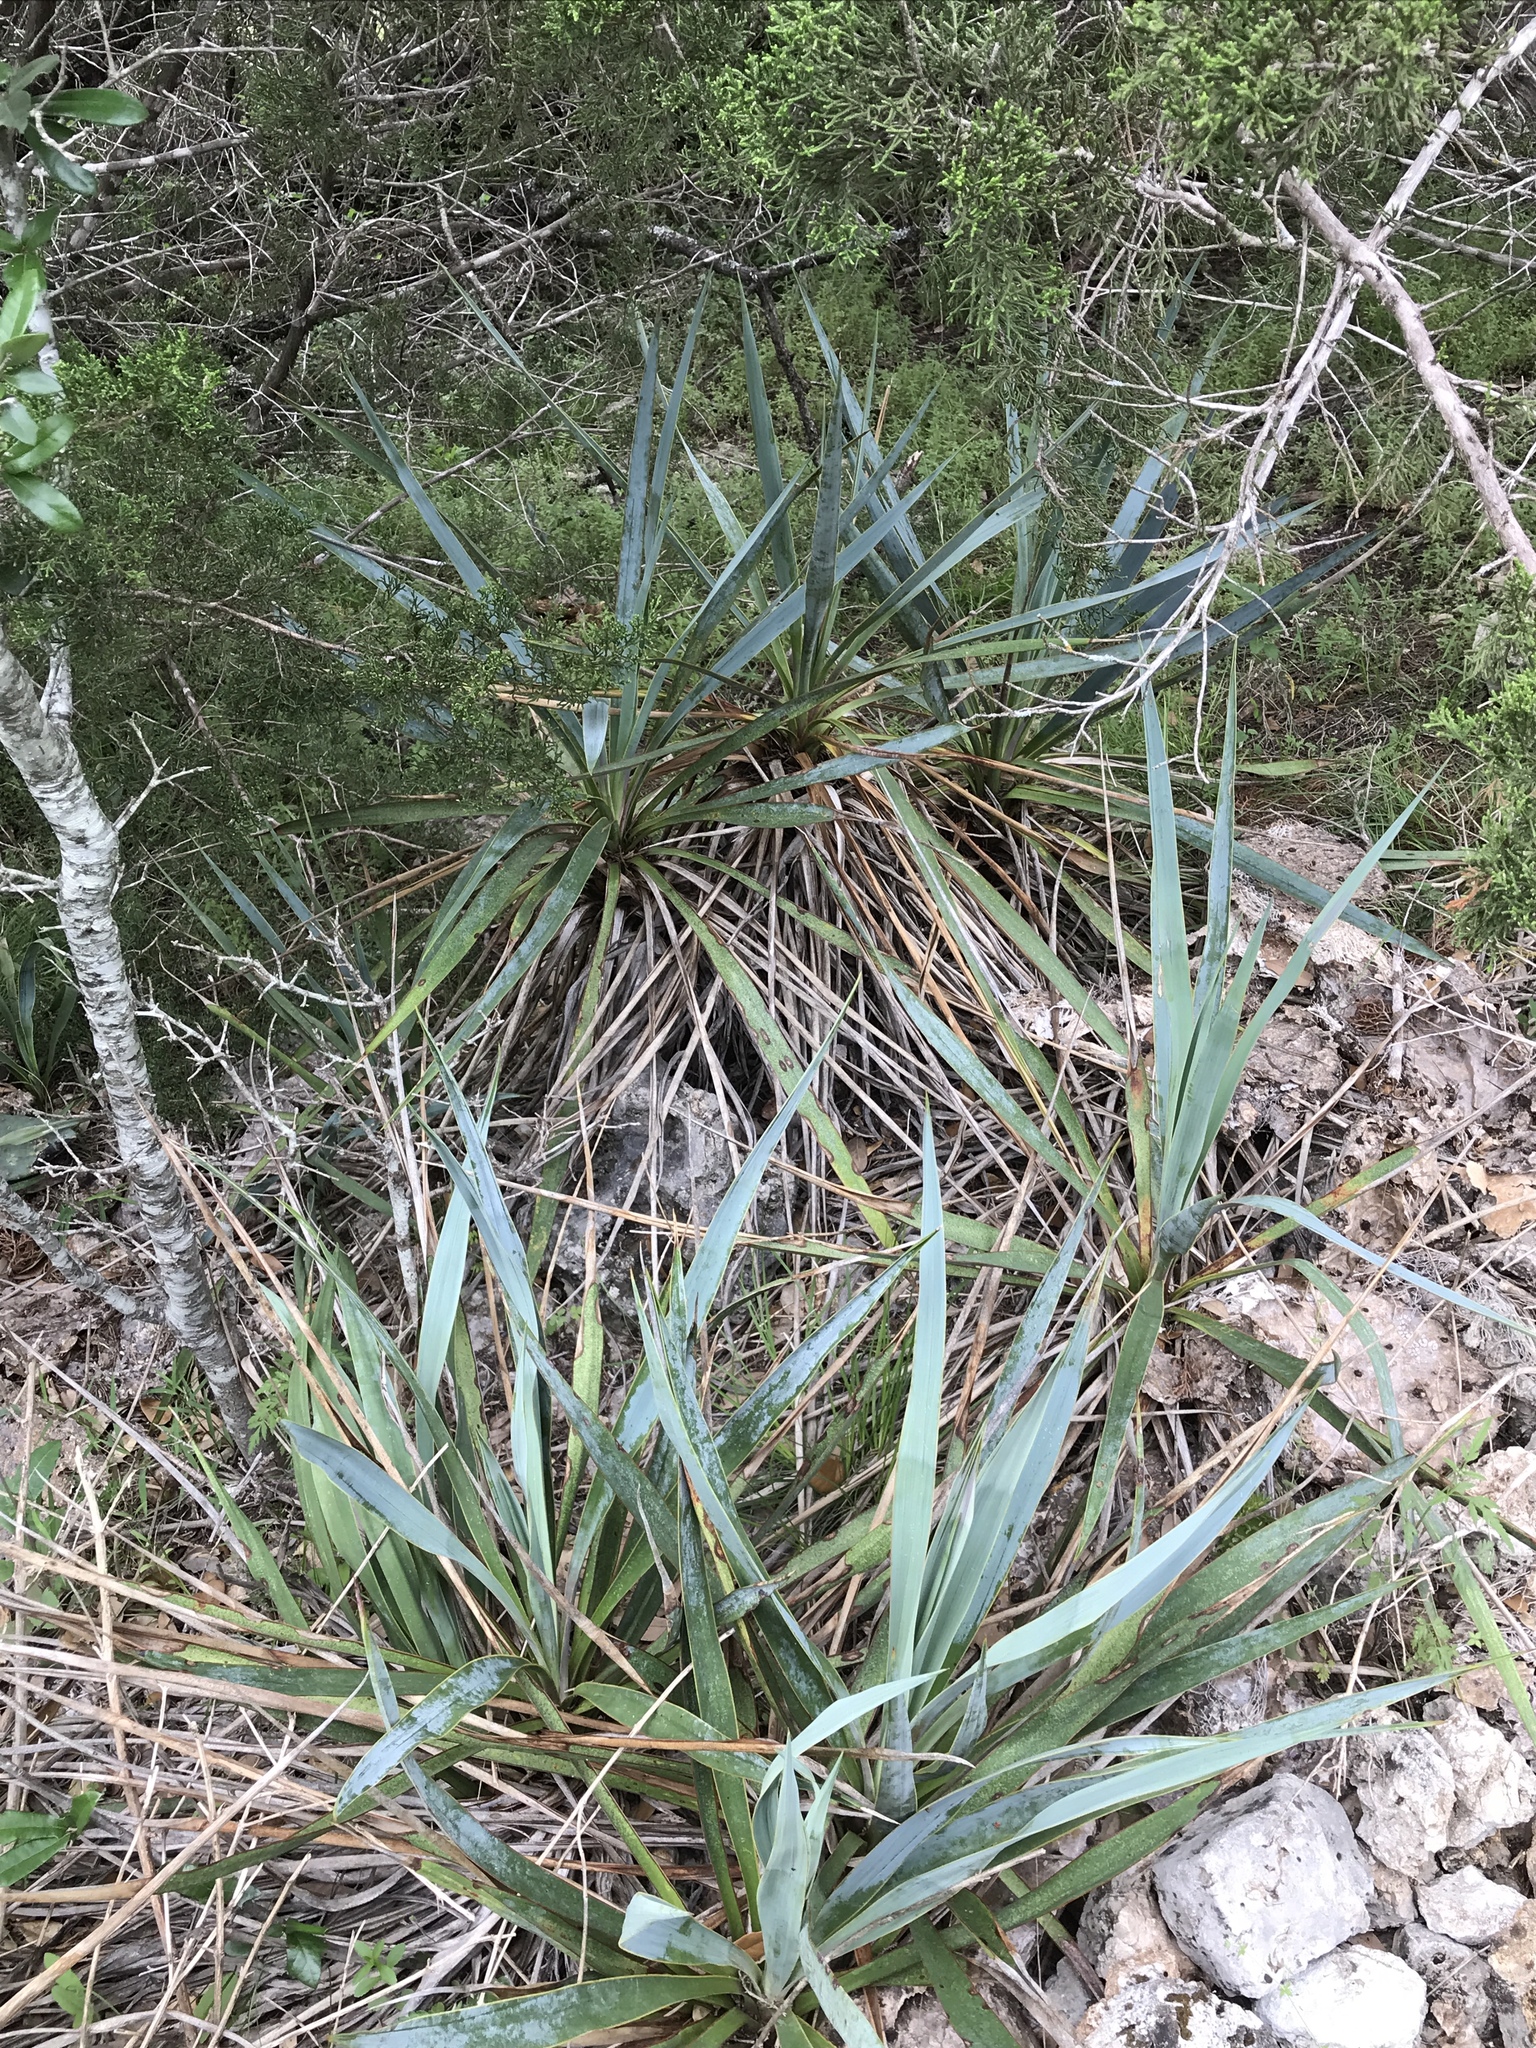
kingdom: Plantae
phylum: Tracheophyta
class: Liliopsida
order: Asparagales
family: Asparagaceae
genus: Yucca
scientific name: Yucca pallida
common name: Pale leaf yucca
